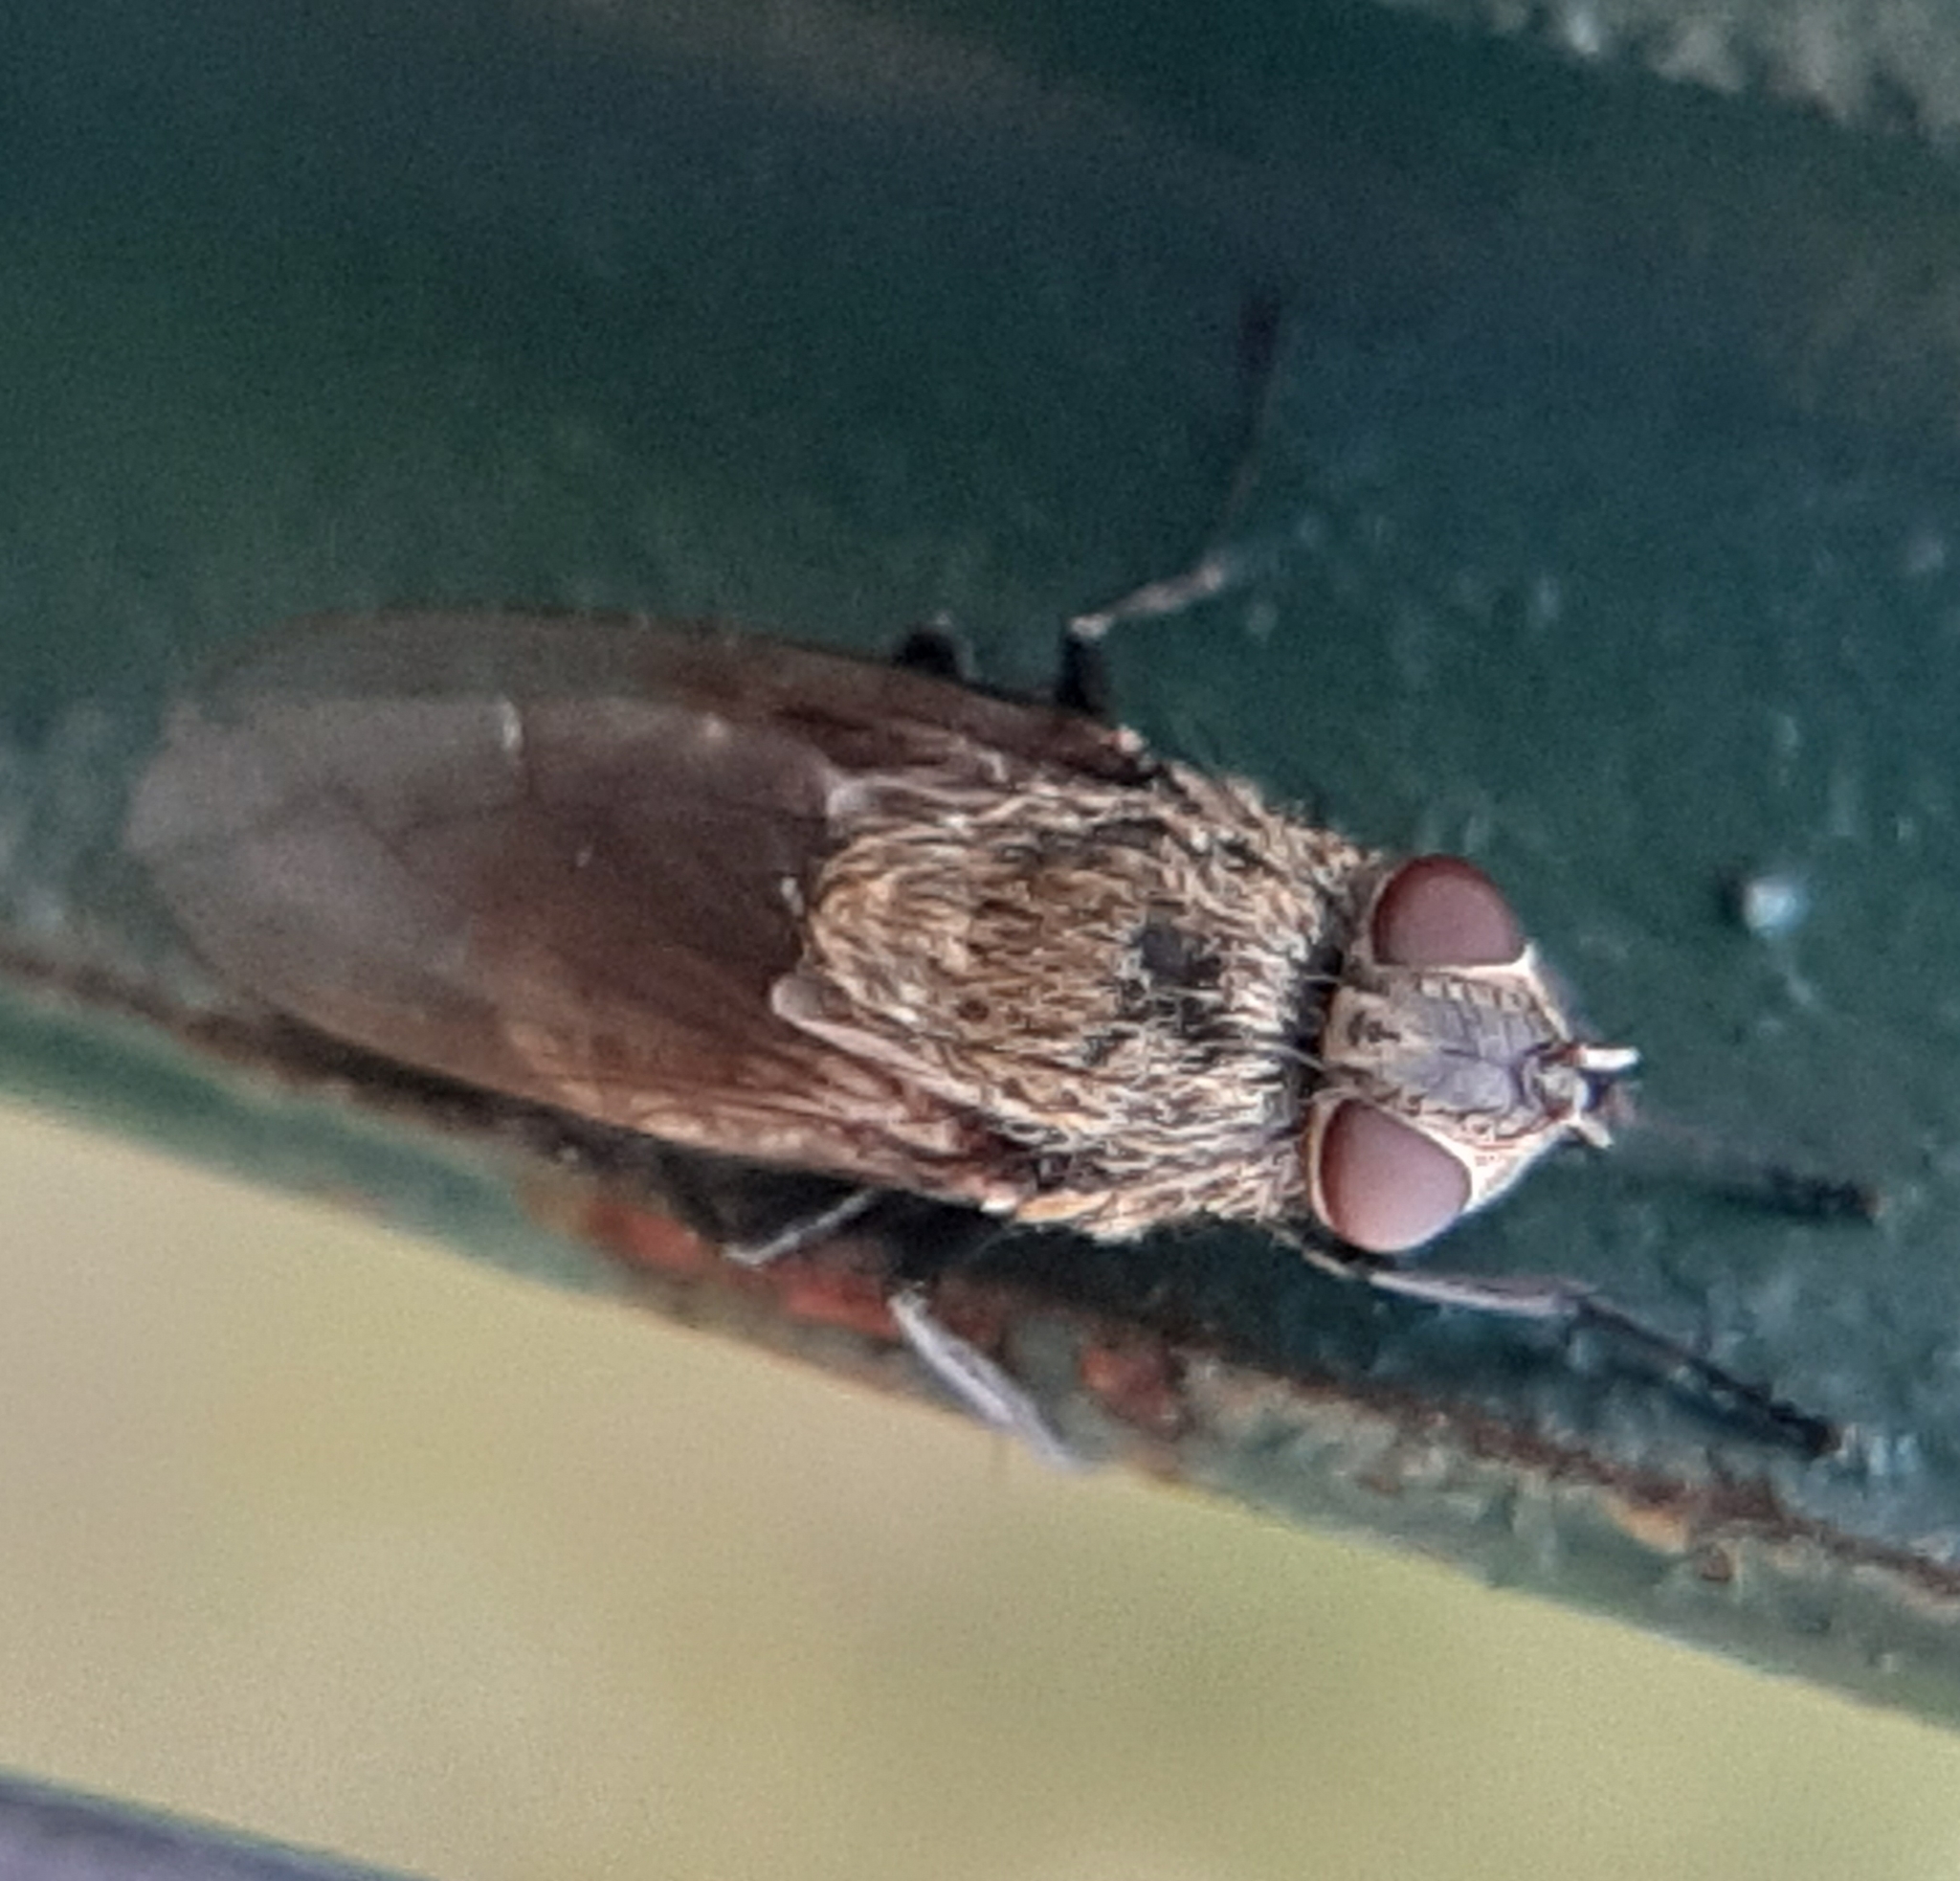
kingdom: Animalia
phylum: Arthropoda
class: Insecta
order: Diptera
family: Polleniidae
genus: Pollenia
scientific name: Pollenia
